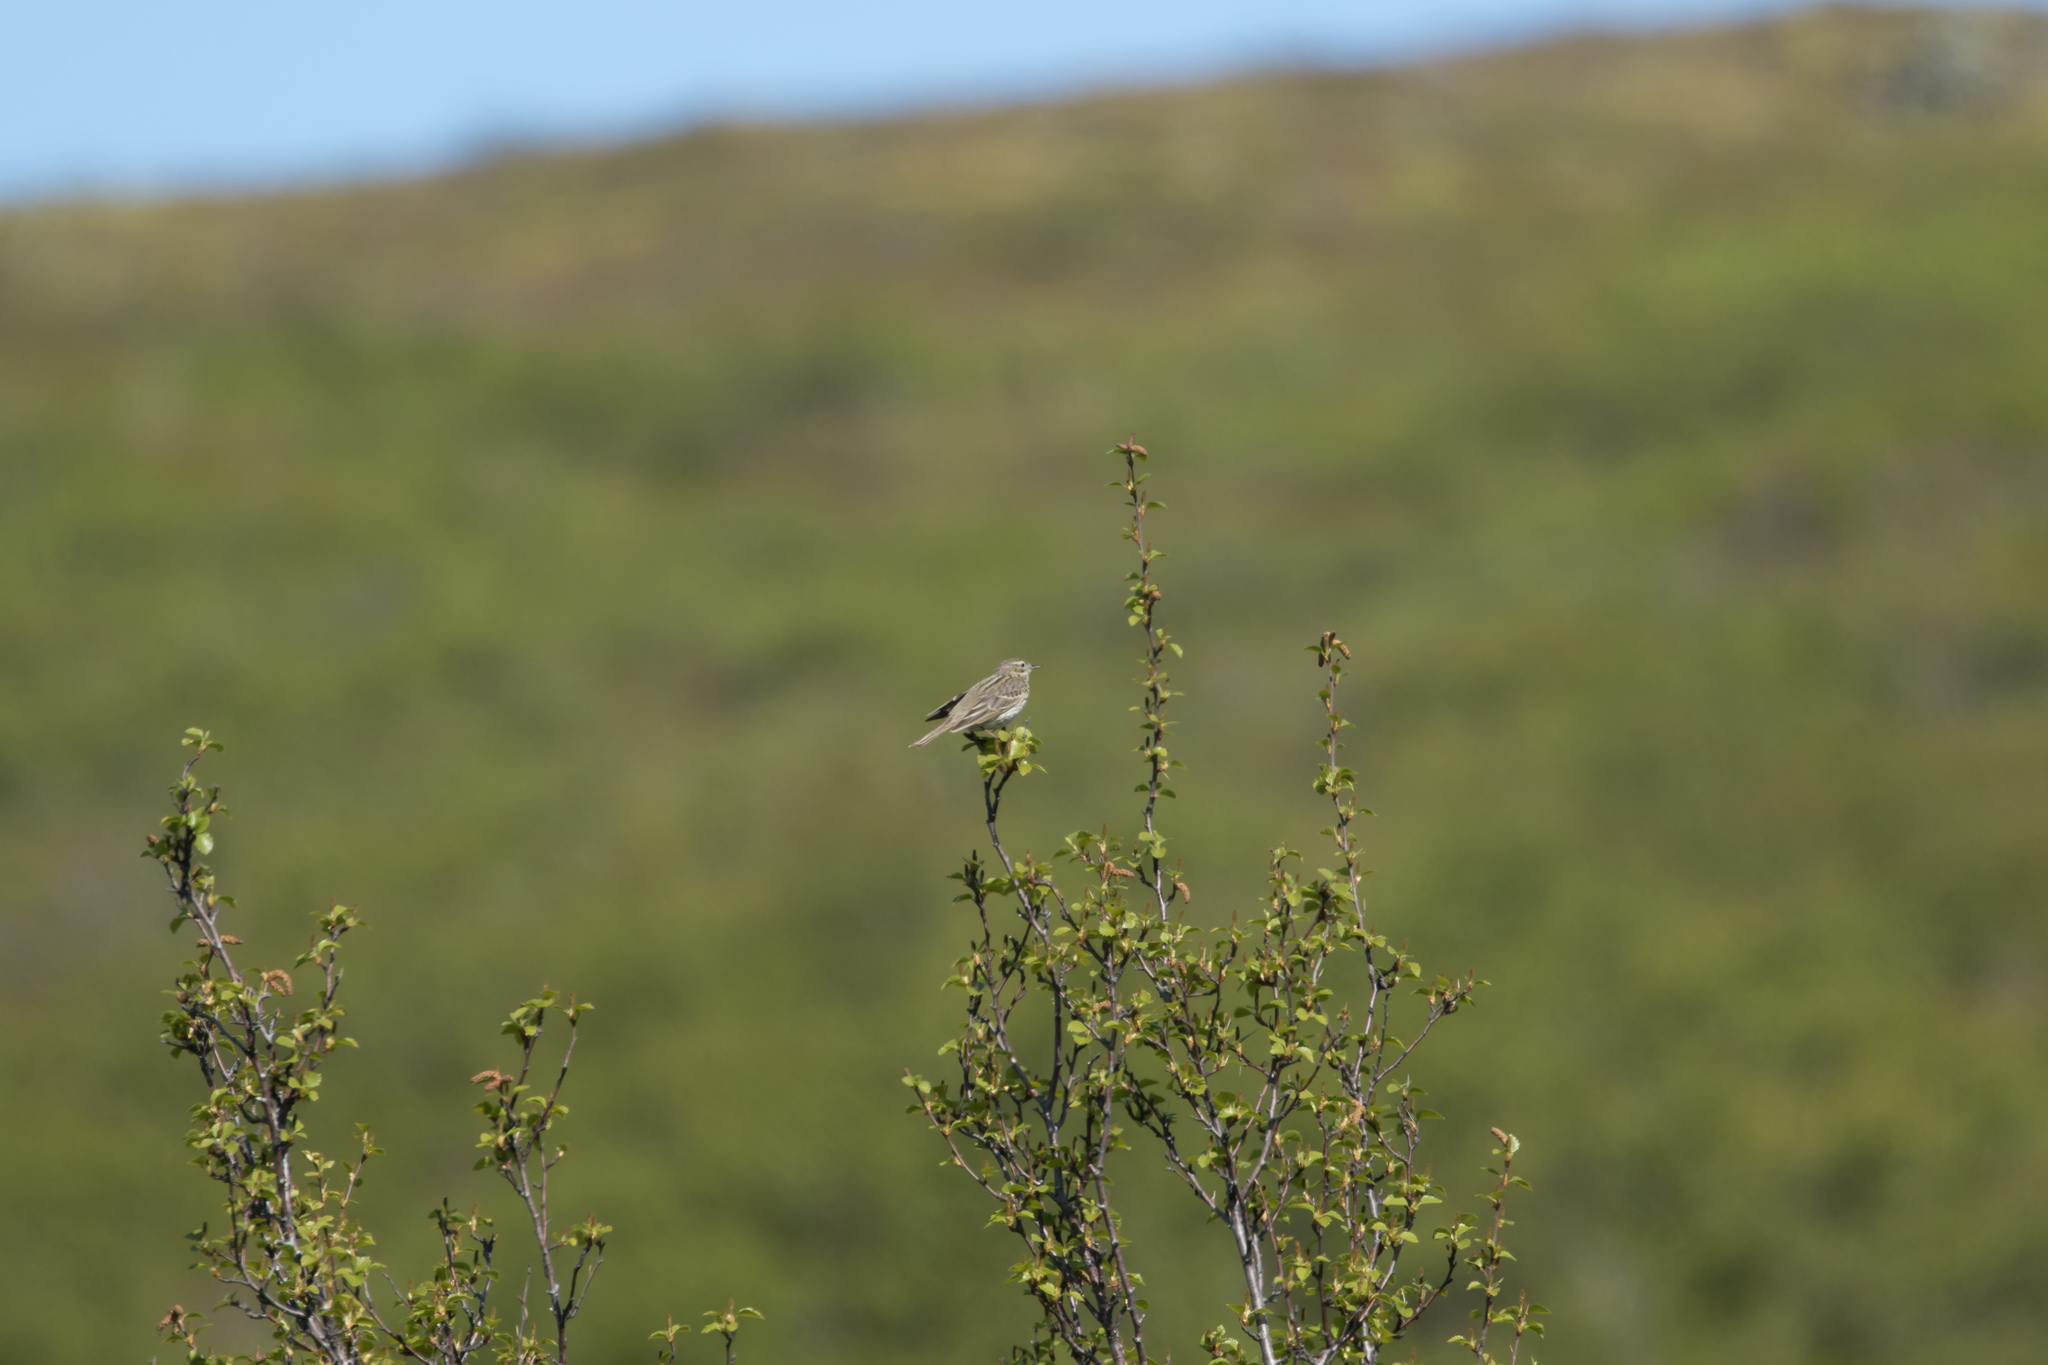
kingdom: Animalia
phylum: Chordata
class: Aves
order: Passeriformes
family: Motacillidae
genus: Anthus
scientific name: Anthus pratensis
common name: Meadow pipit
